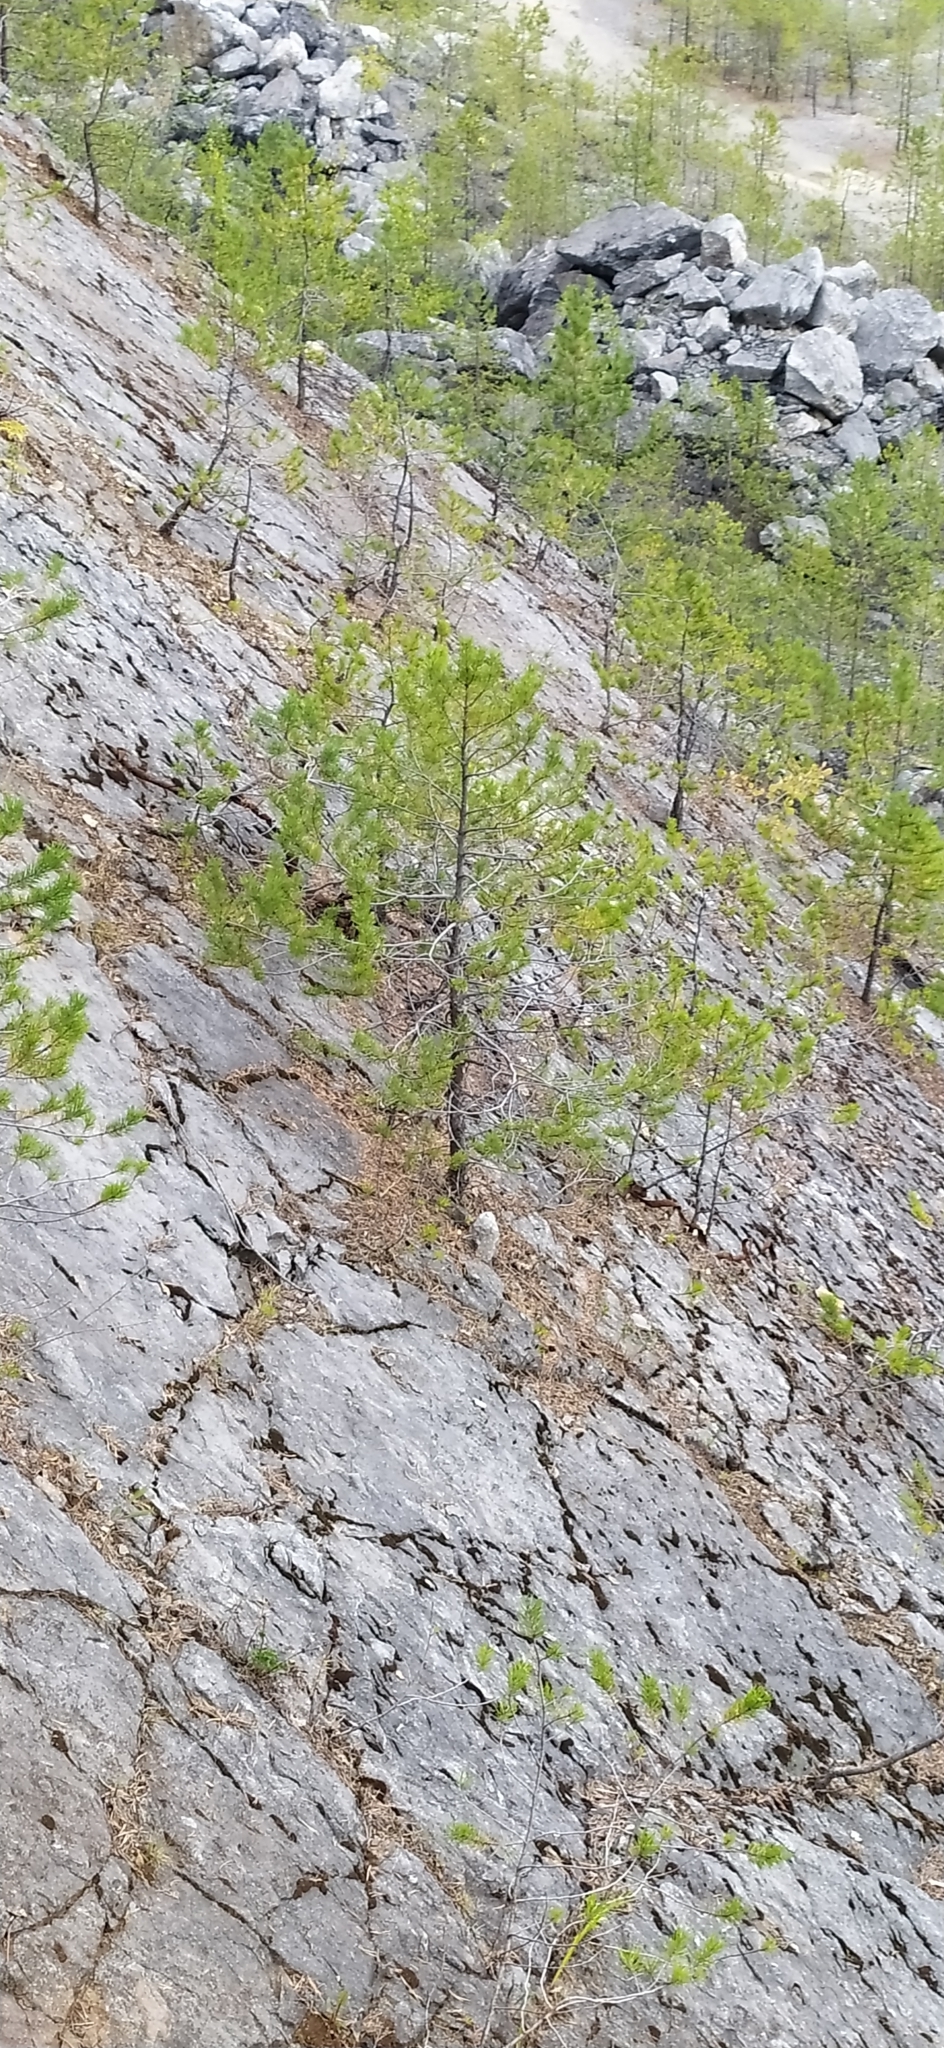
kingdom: Plantae
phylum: Tracheophyta
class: Pinopsida
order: Pinales
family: Pinaceae
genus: Pinus
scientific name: Pinus sylvestris
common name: Scots pine
